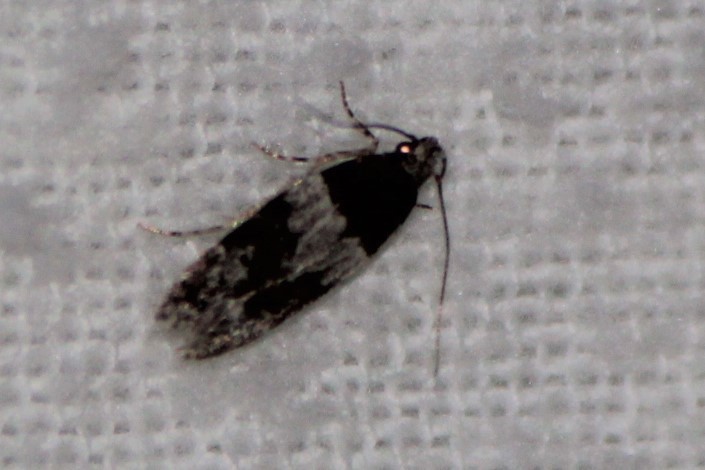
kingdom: Animalia
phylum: Arthropoda
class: Insecta
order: Lepidoptera
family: Gelechiidae
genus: Pubitelphusa
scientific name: Pubitelphusa latifasciella
